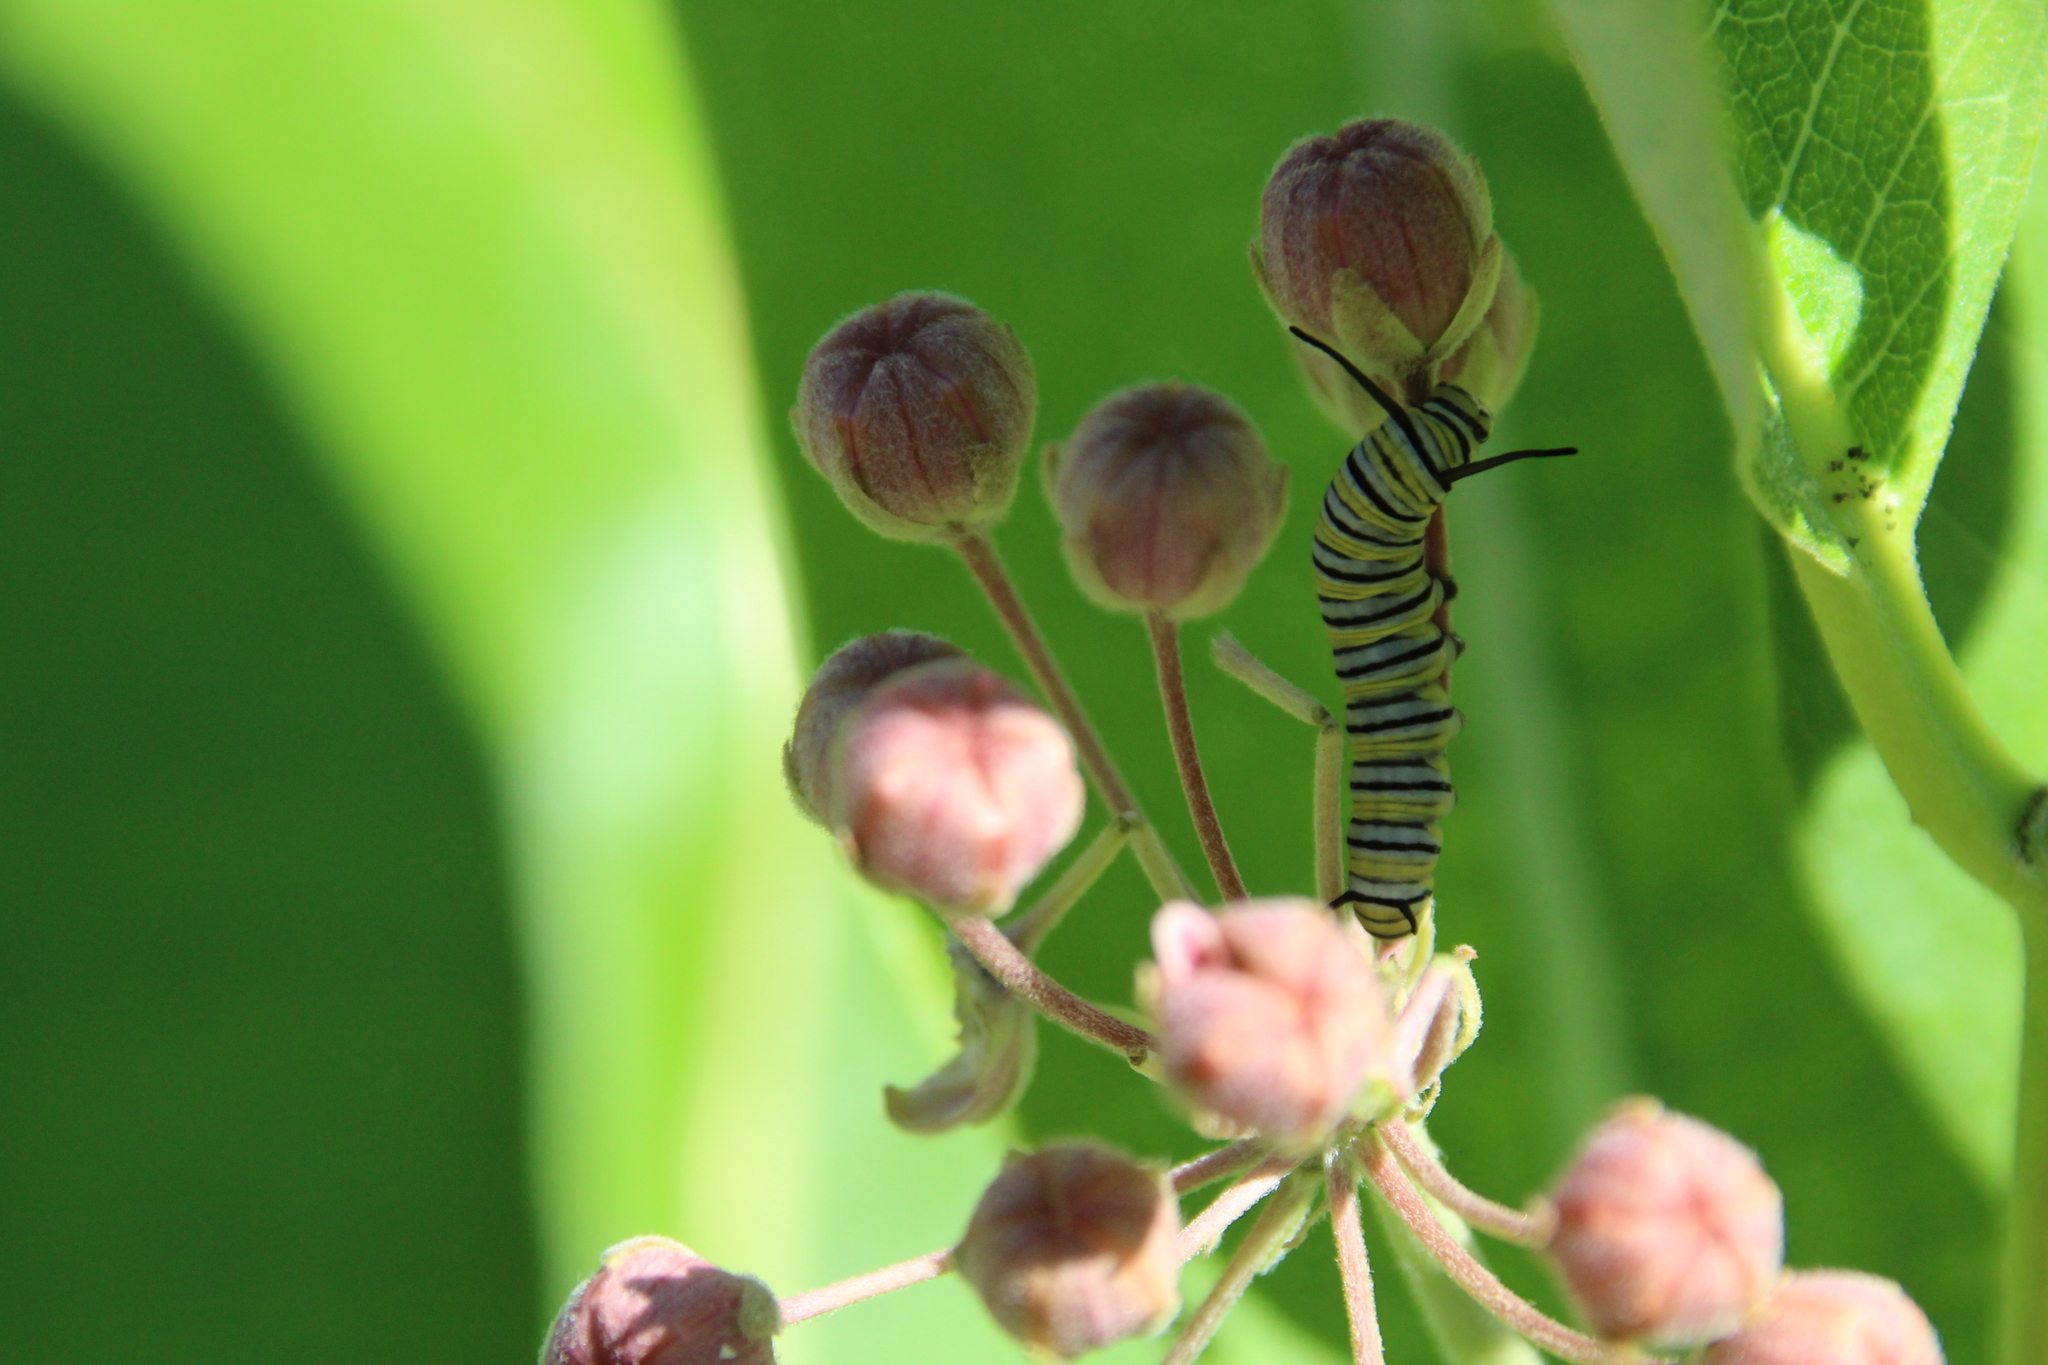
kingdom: Animalia
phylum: Arthropoda
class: Insecta
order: Lepidoptera
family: Nymphalidae
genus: Danaus
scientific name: Danaus plexippus
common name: Monarch
